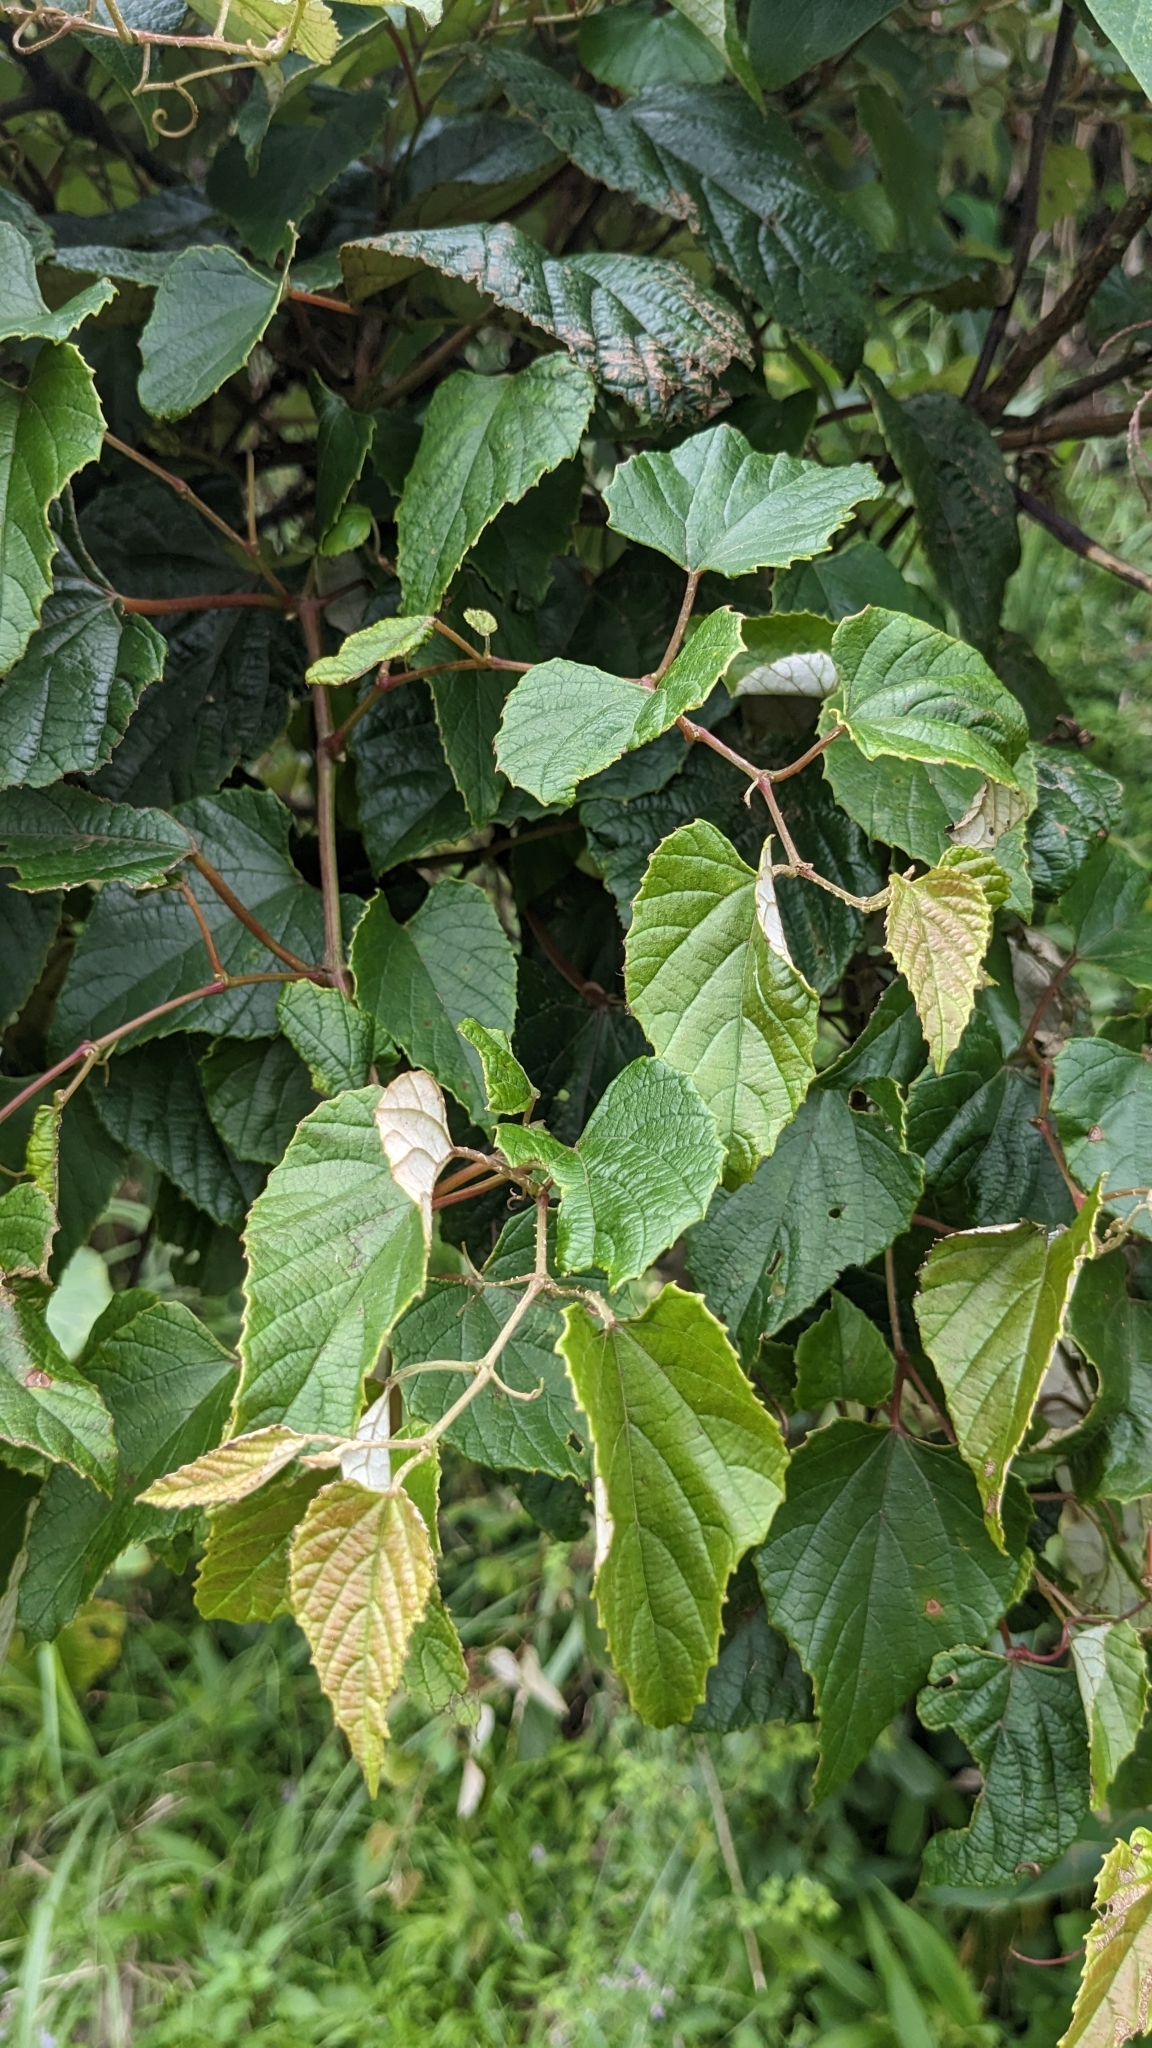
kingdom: Plantae
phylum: Tracheophyta
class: Magnoliopsida
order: Vitales
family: Vitaceae
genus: Vitis
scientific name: Vitis heyneana
